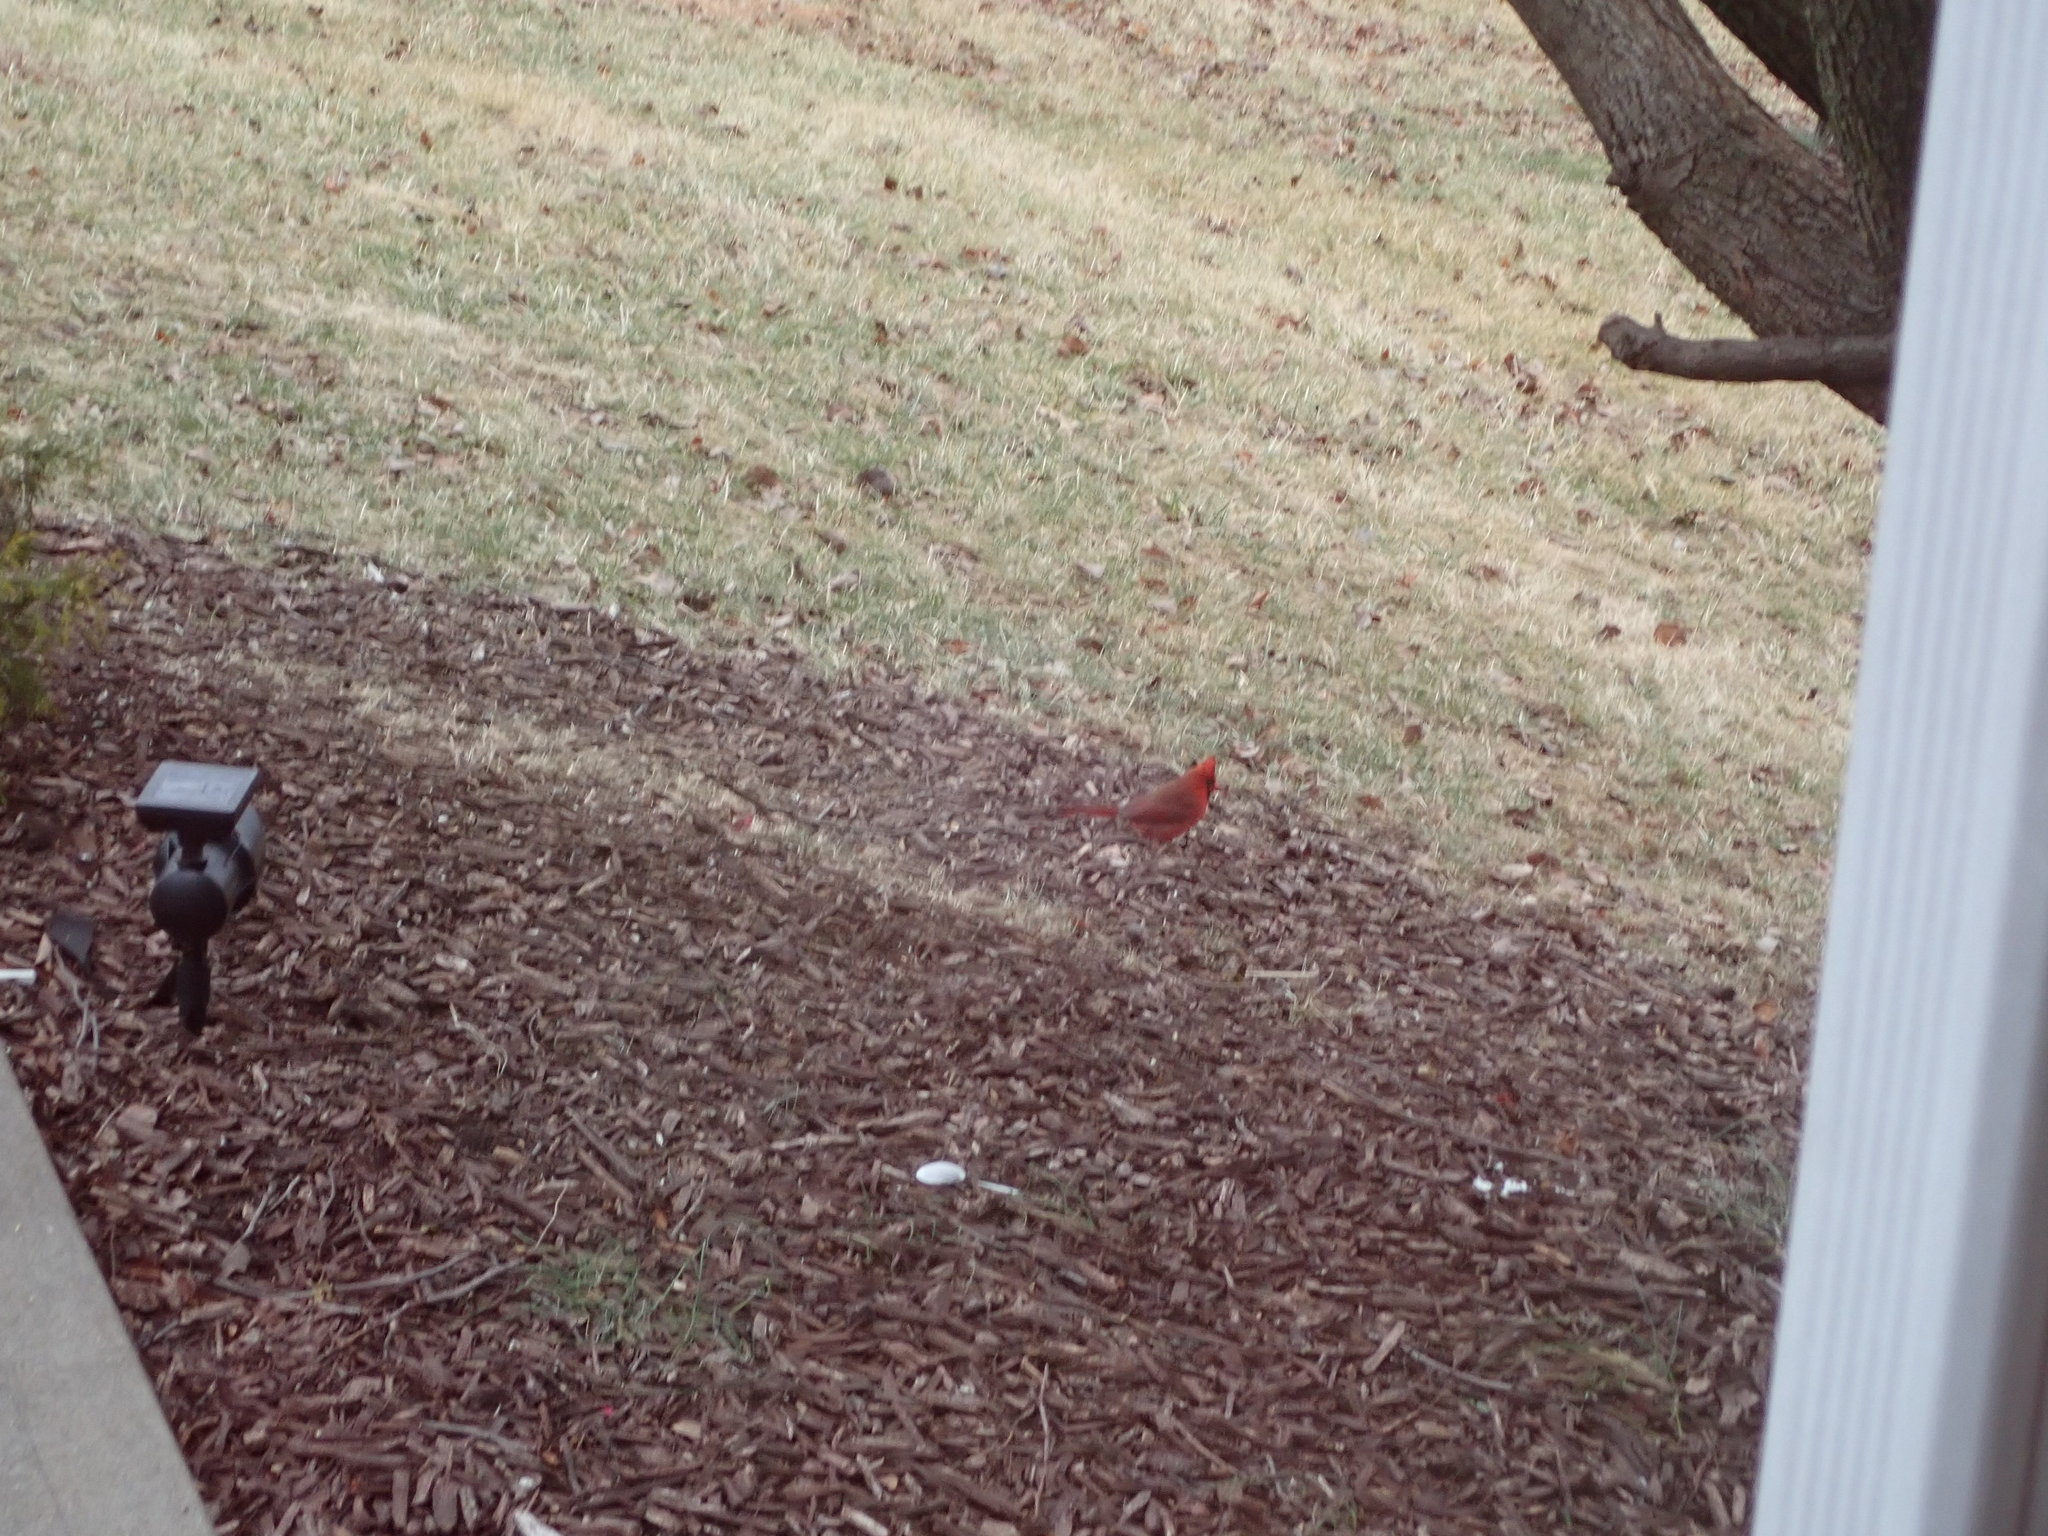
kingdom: Animalia
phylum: Chordata
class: Aves
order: Passeriformes
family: Cardinalidae
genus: Cardinalis
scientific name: Cardinalis cardinalis
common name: Northern cardinal
